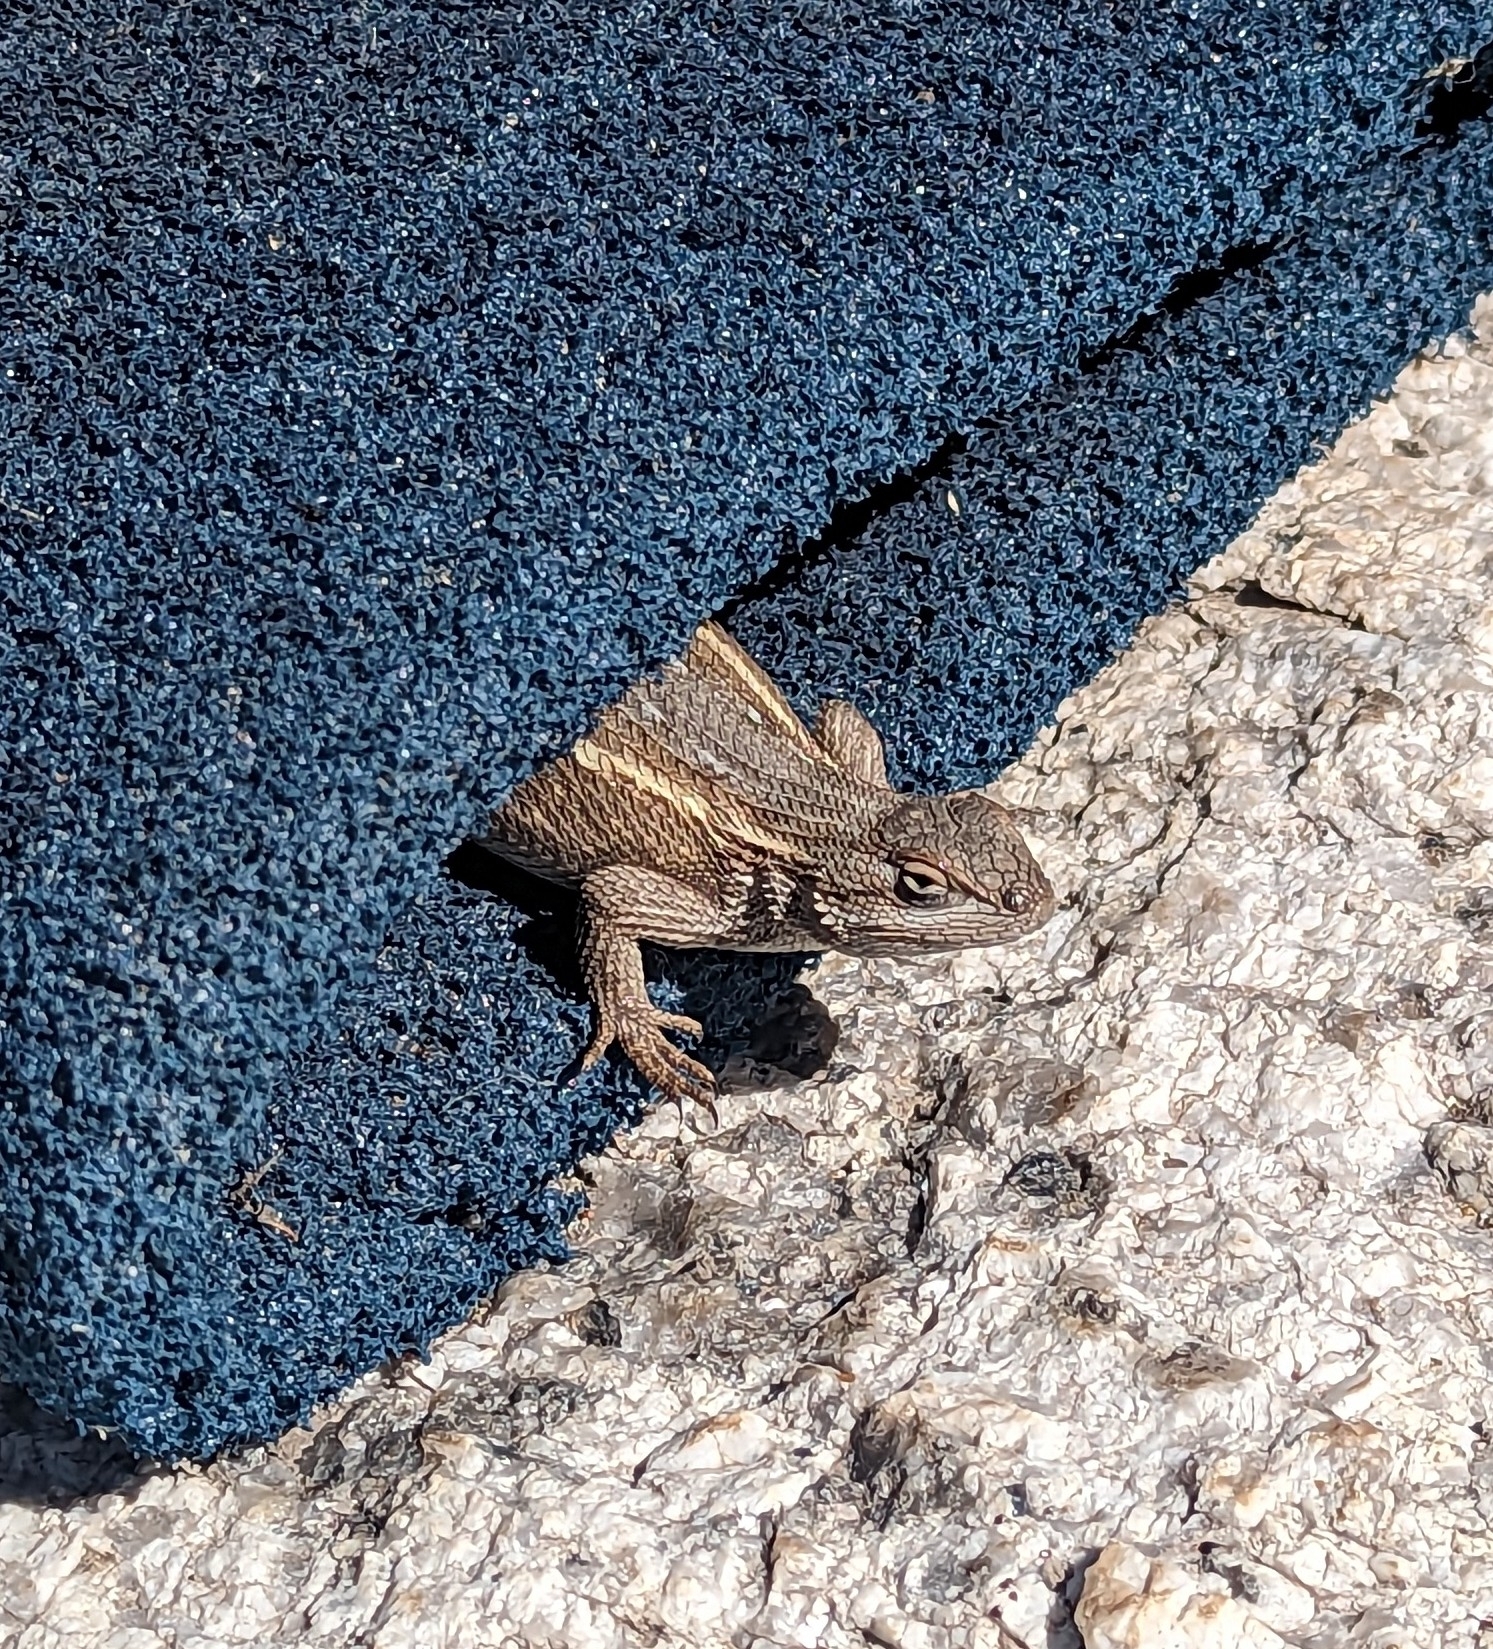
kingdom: Animalia
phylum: Chordata
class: Squamata
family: Phrynosomatidae
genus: Sceloporus
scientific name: Sceloporus cowlesi
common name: White sands prairie lizard
